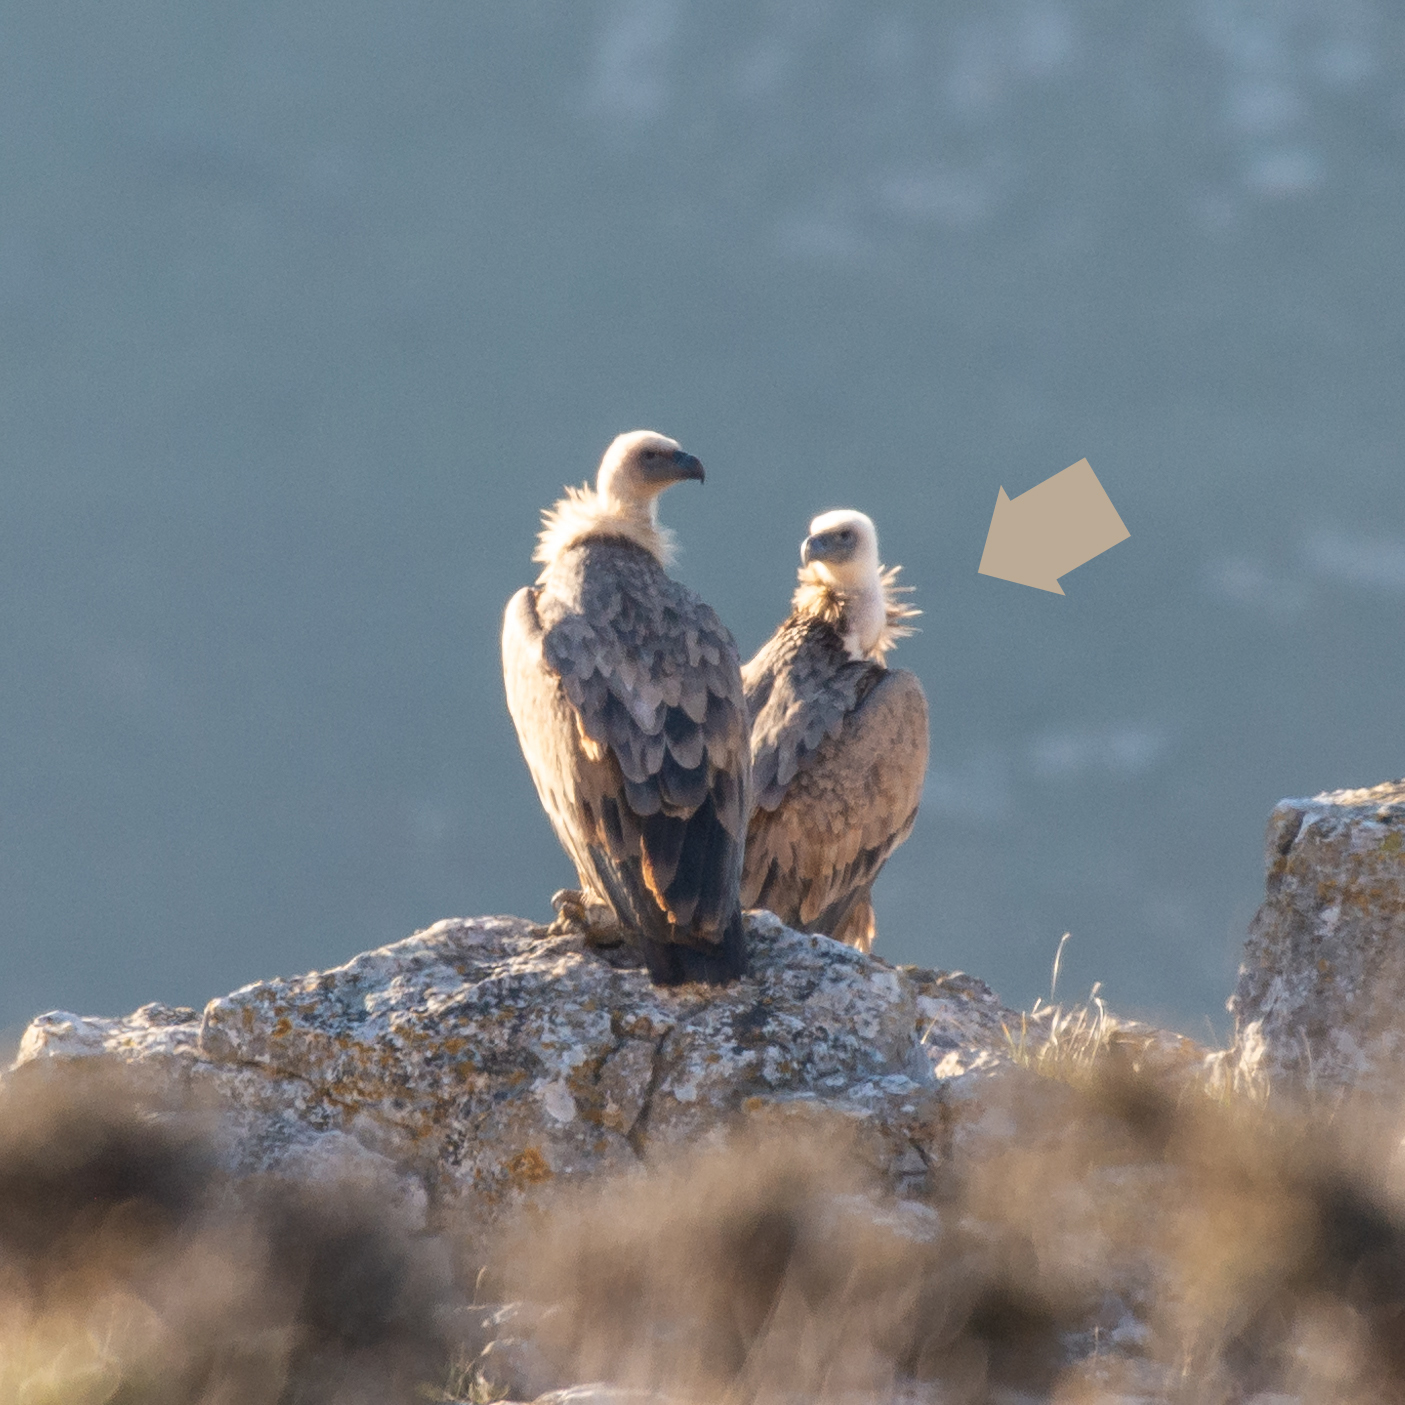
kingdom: Animalia
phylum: Chordata
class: Aves
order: Accipitriformes
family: Accipitridae
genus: Gyps
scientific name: Gyps fulvus
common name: Griffon vulture
